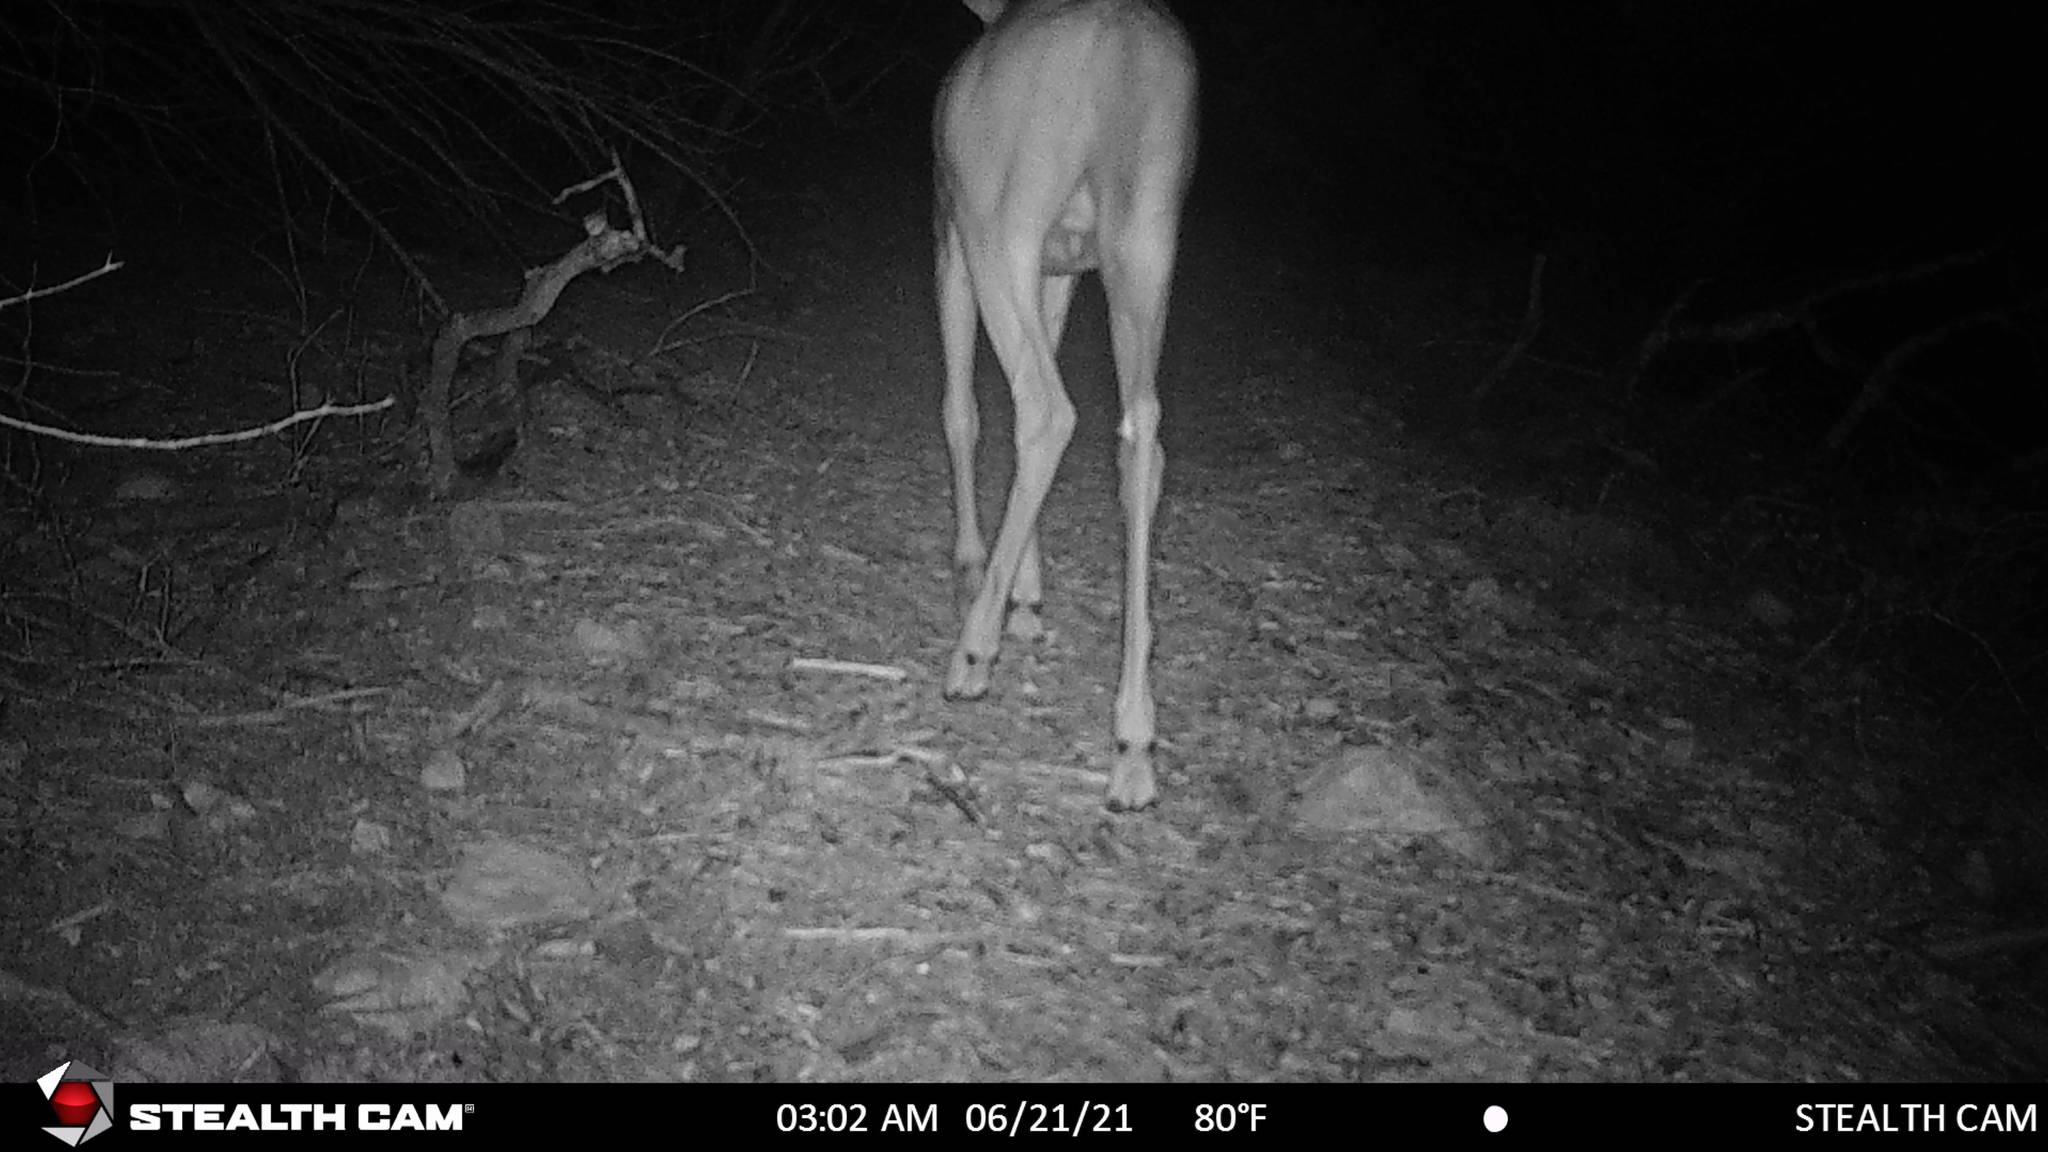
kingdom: Animalia
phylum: Chordata
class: Mammalia
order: Artiodactyla
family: Cervidae
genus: Odocoileus
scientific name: Odocoileus virginianus
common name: White-tailed deer
